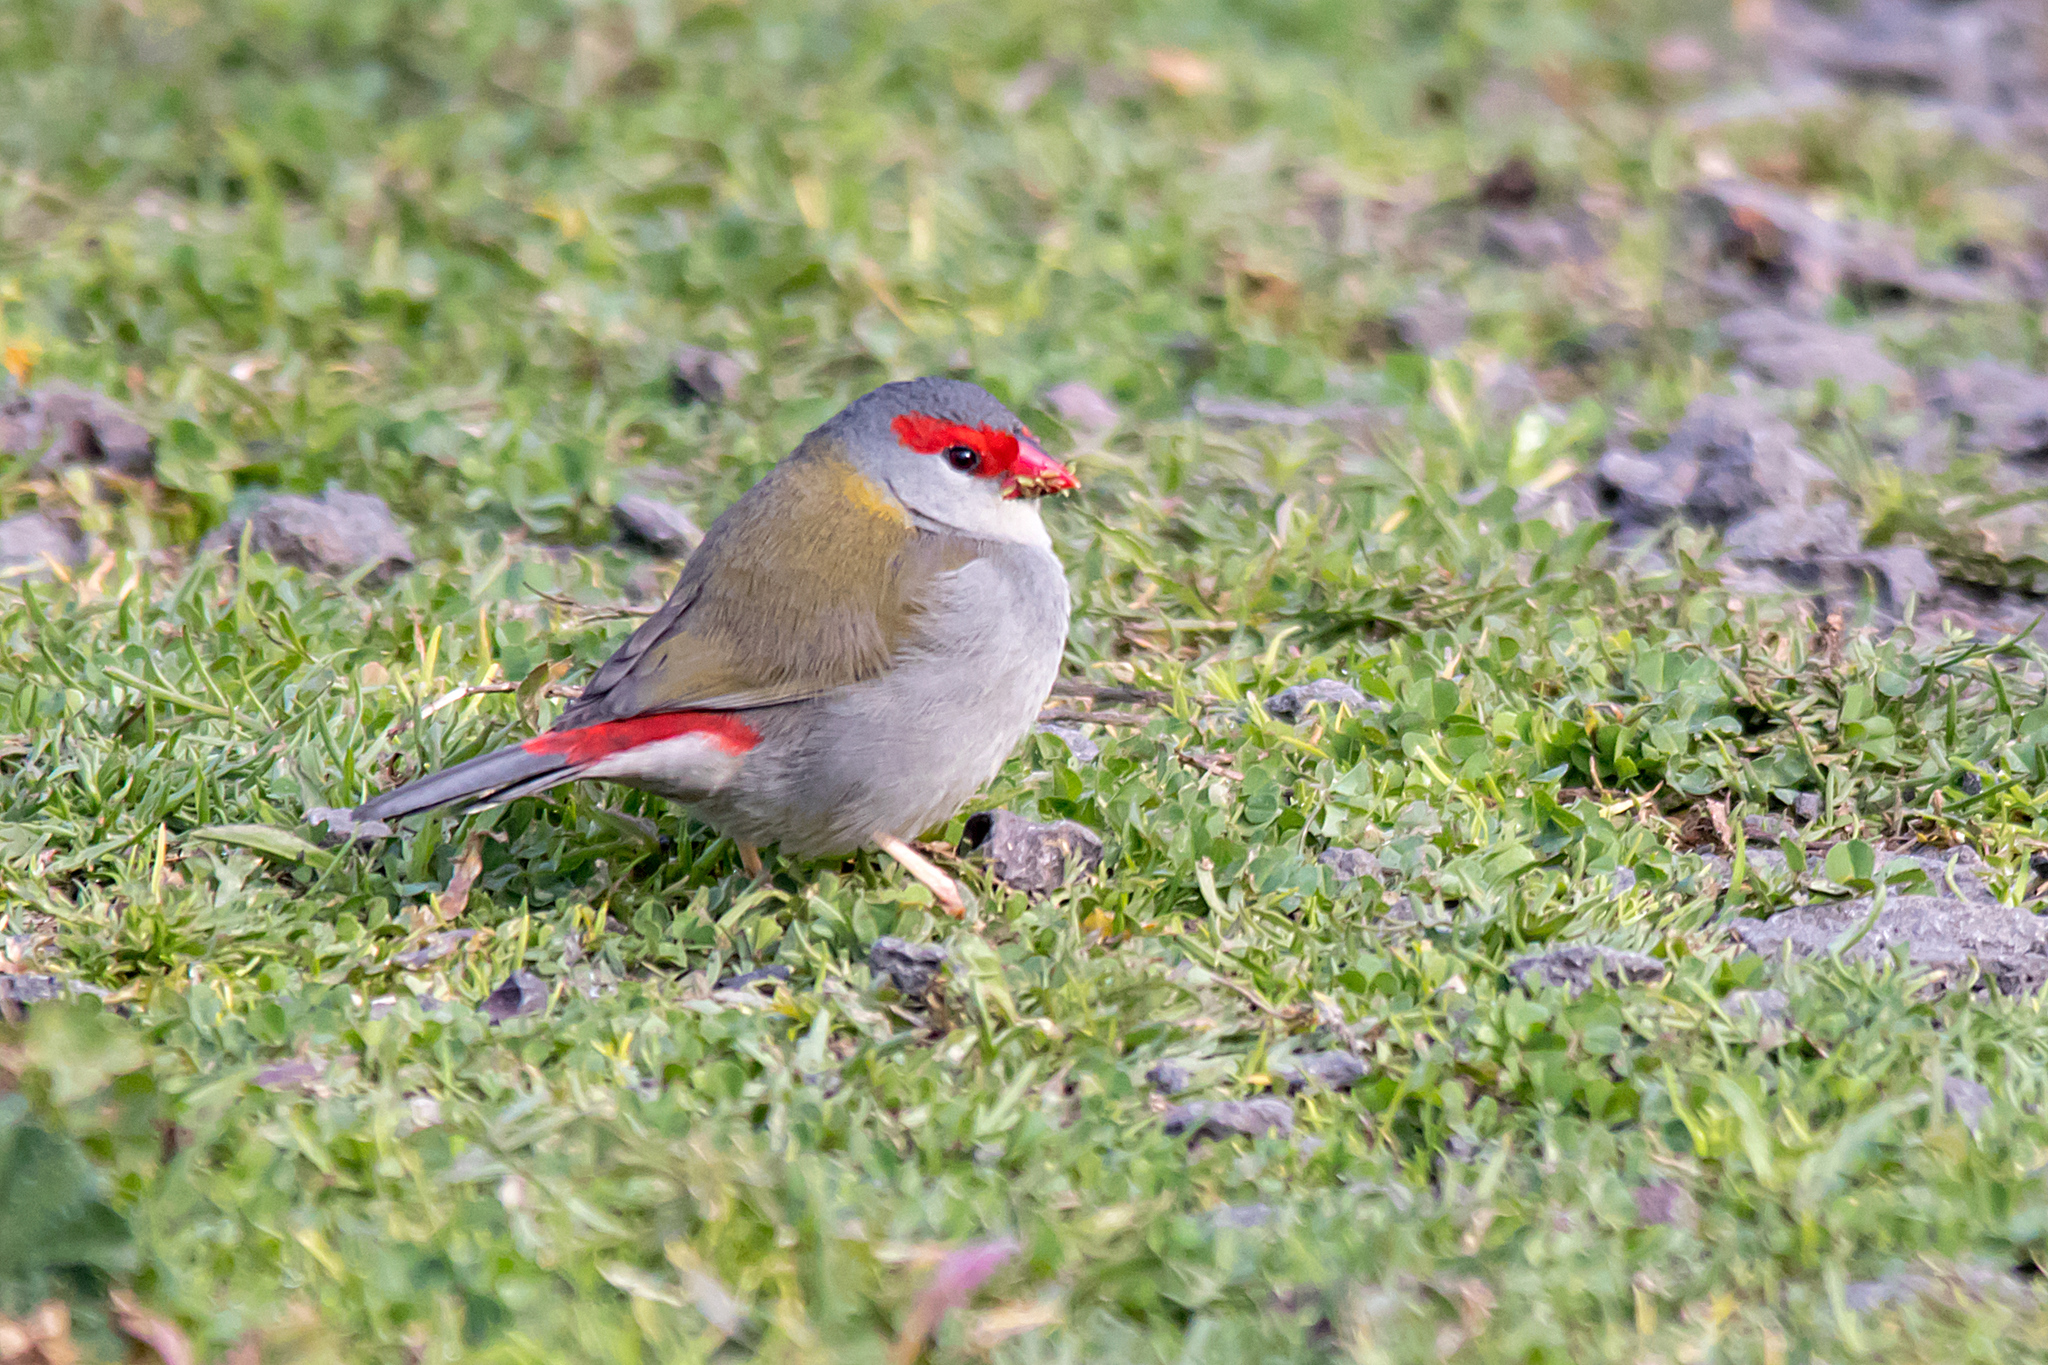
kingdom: Animalia
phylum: Chordata
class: Aves
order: Passeriformes
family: Estrildidae
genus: Neochmia
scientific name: Neochmia temporalis
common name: Red-browed finch
